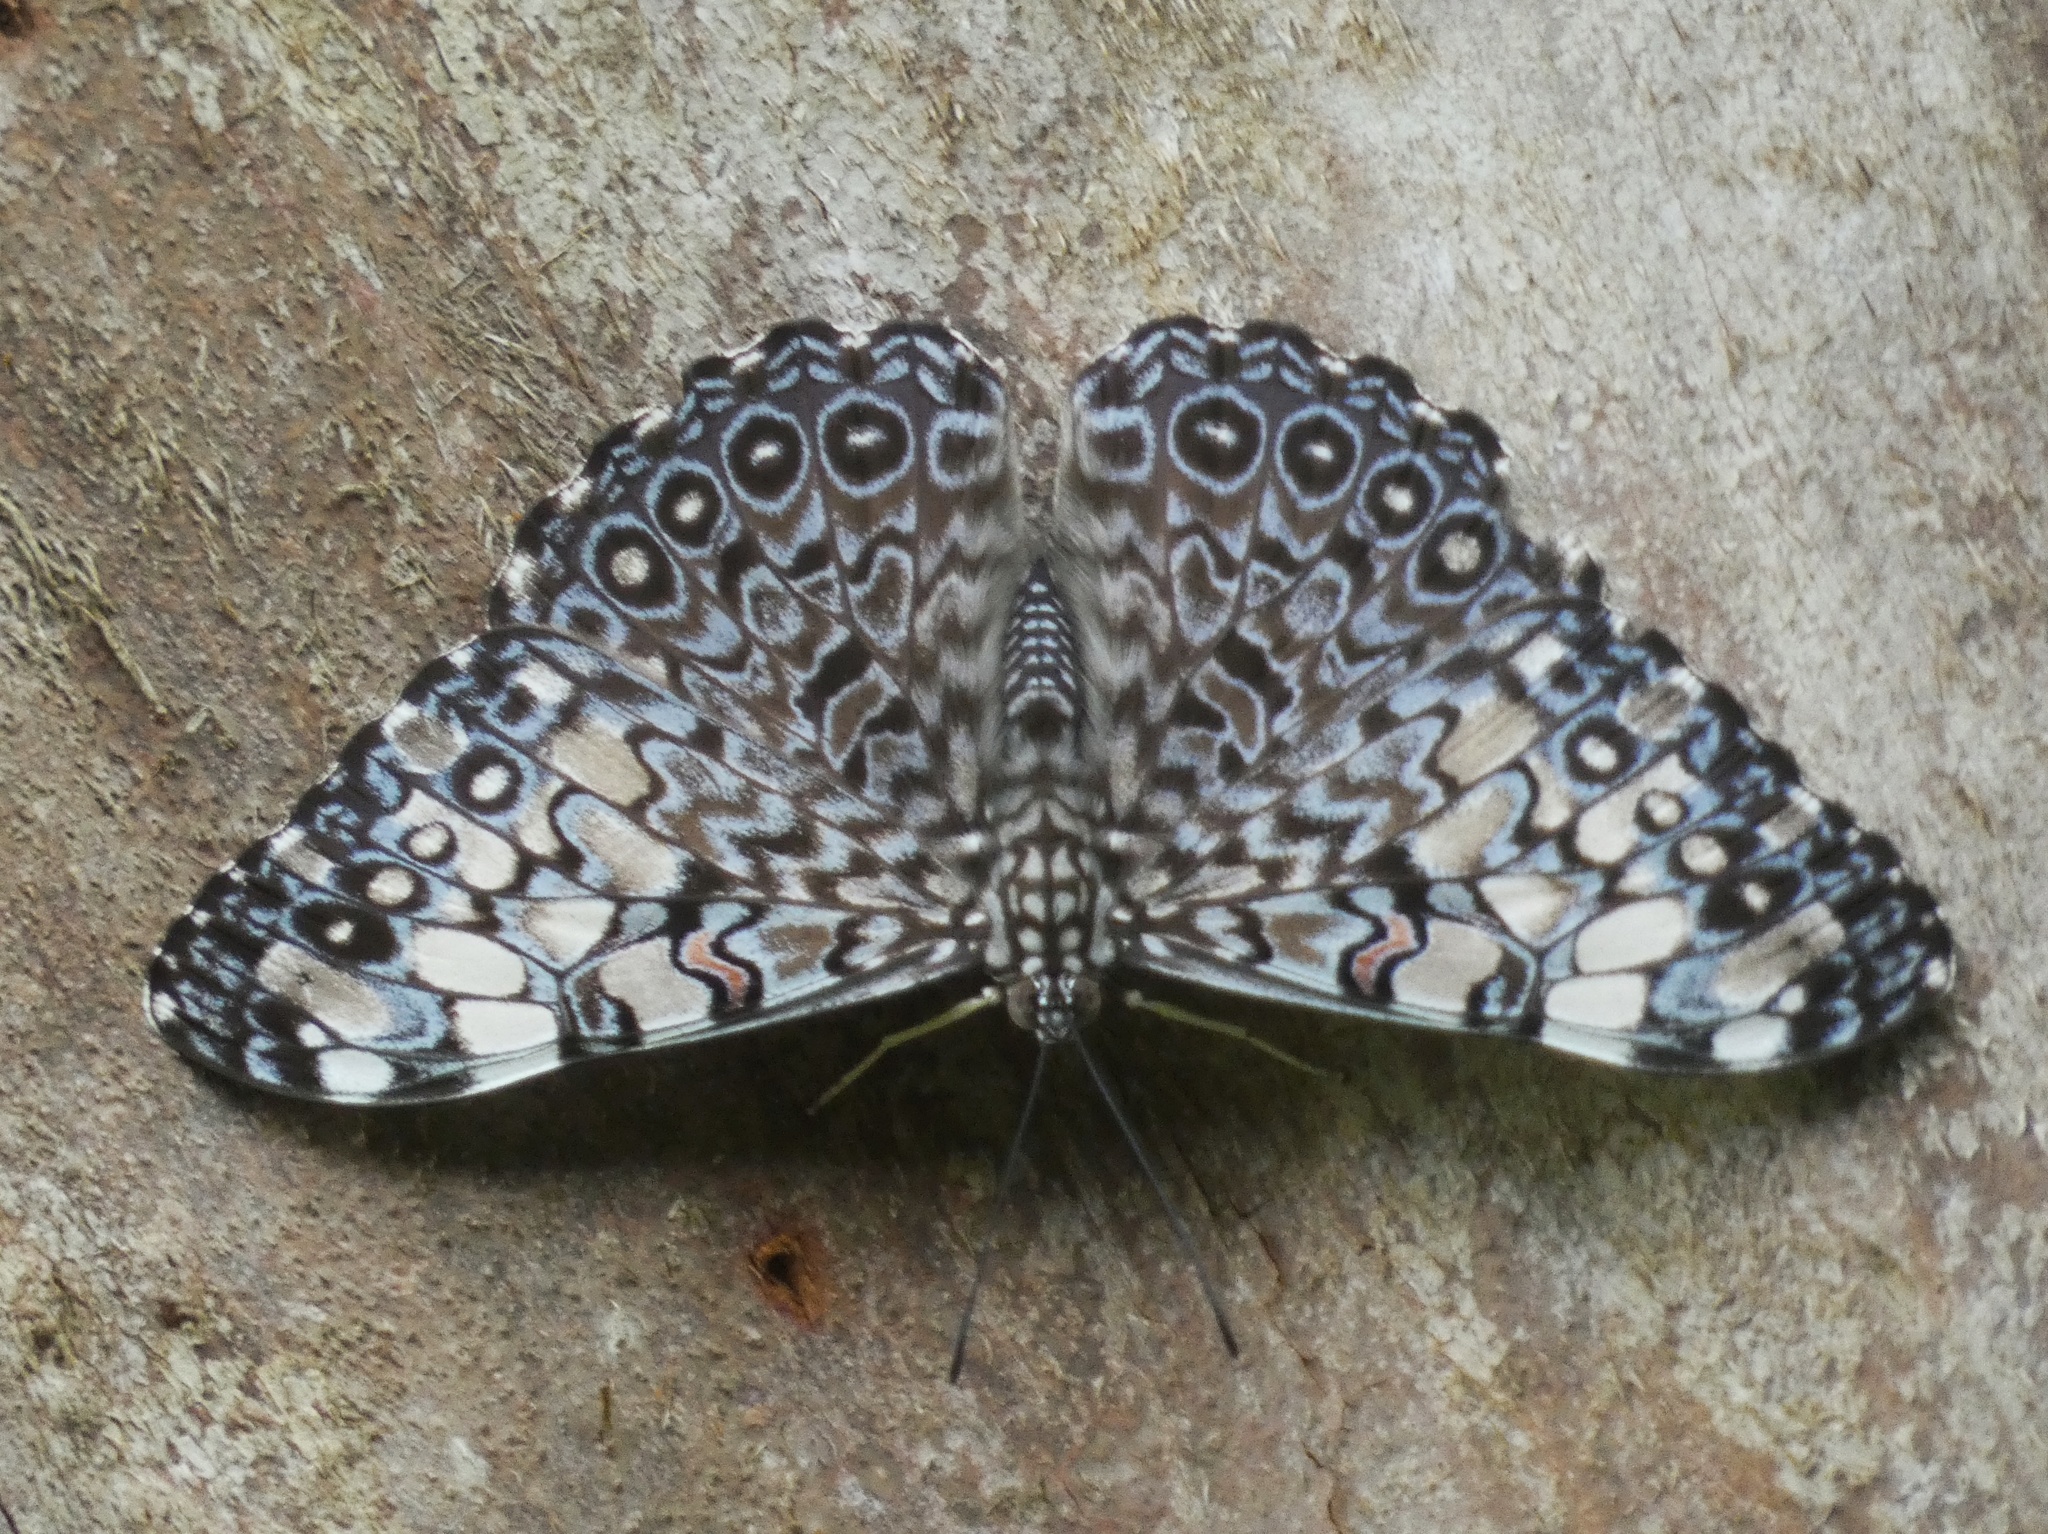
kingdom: Animalia
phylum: Arthropoda
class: Insecta
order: Lepidoptera
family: Nymphalidae
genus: Hamadryas
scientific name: Hamadryas feronia
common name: Variable cracker
